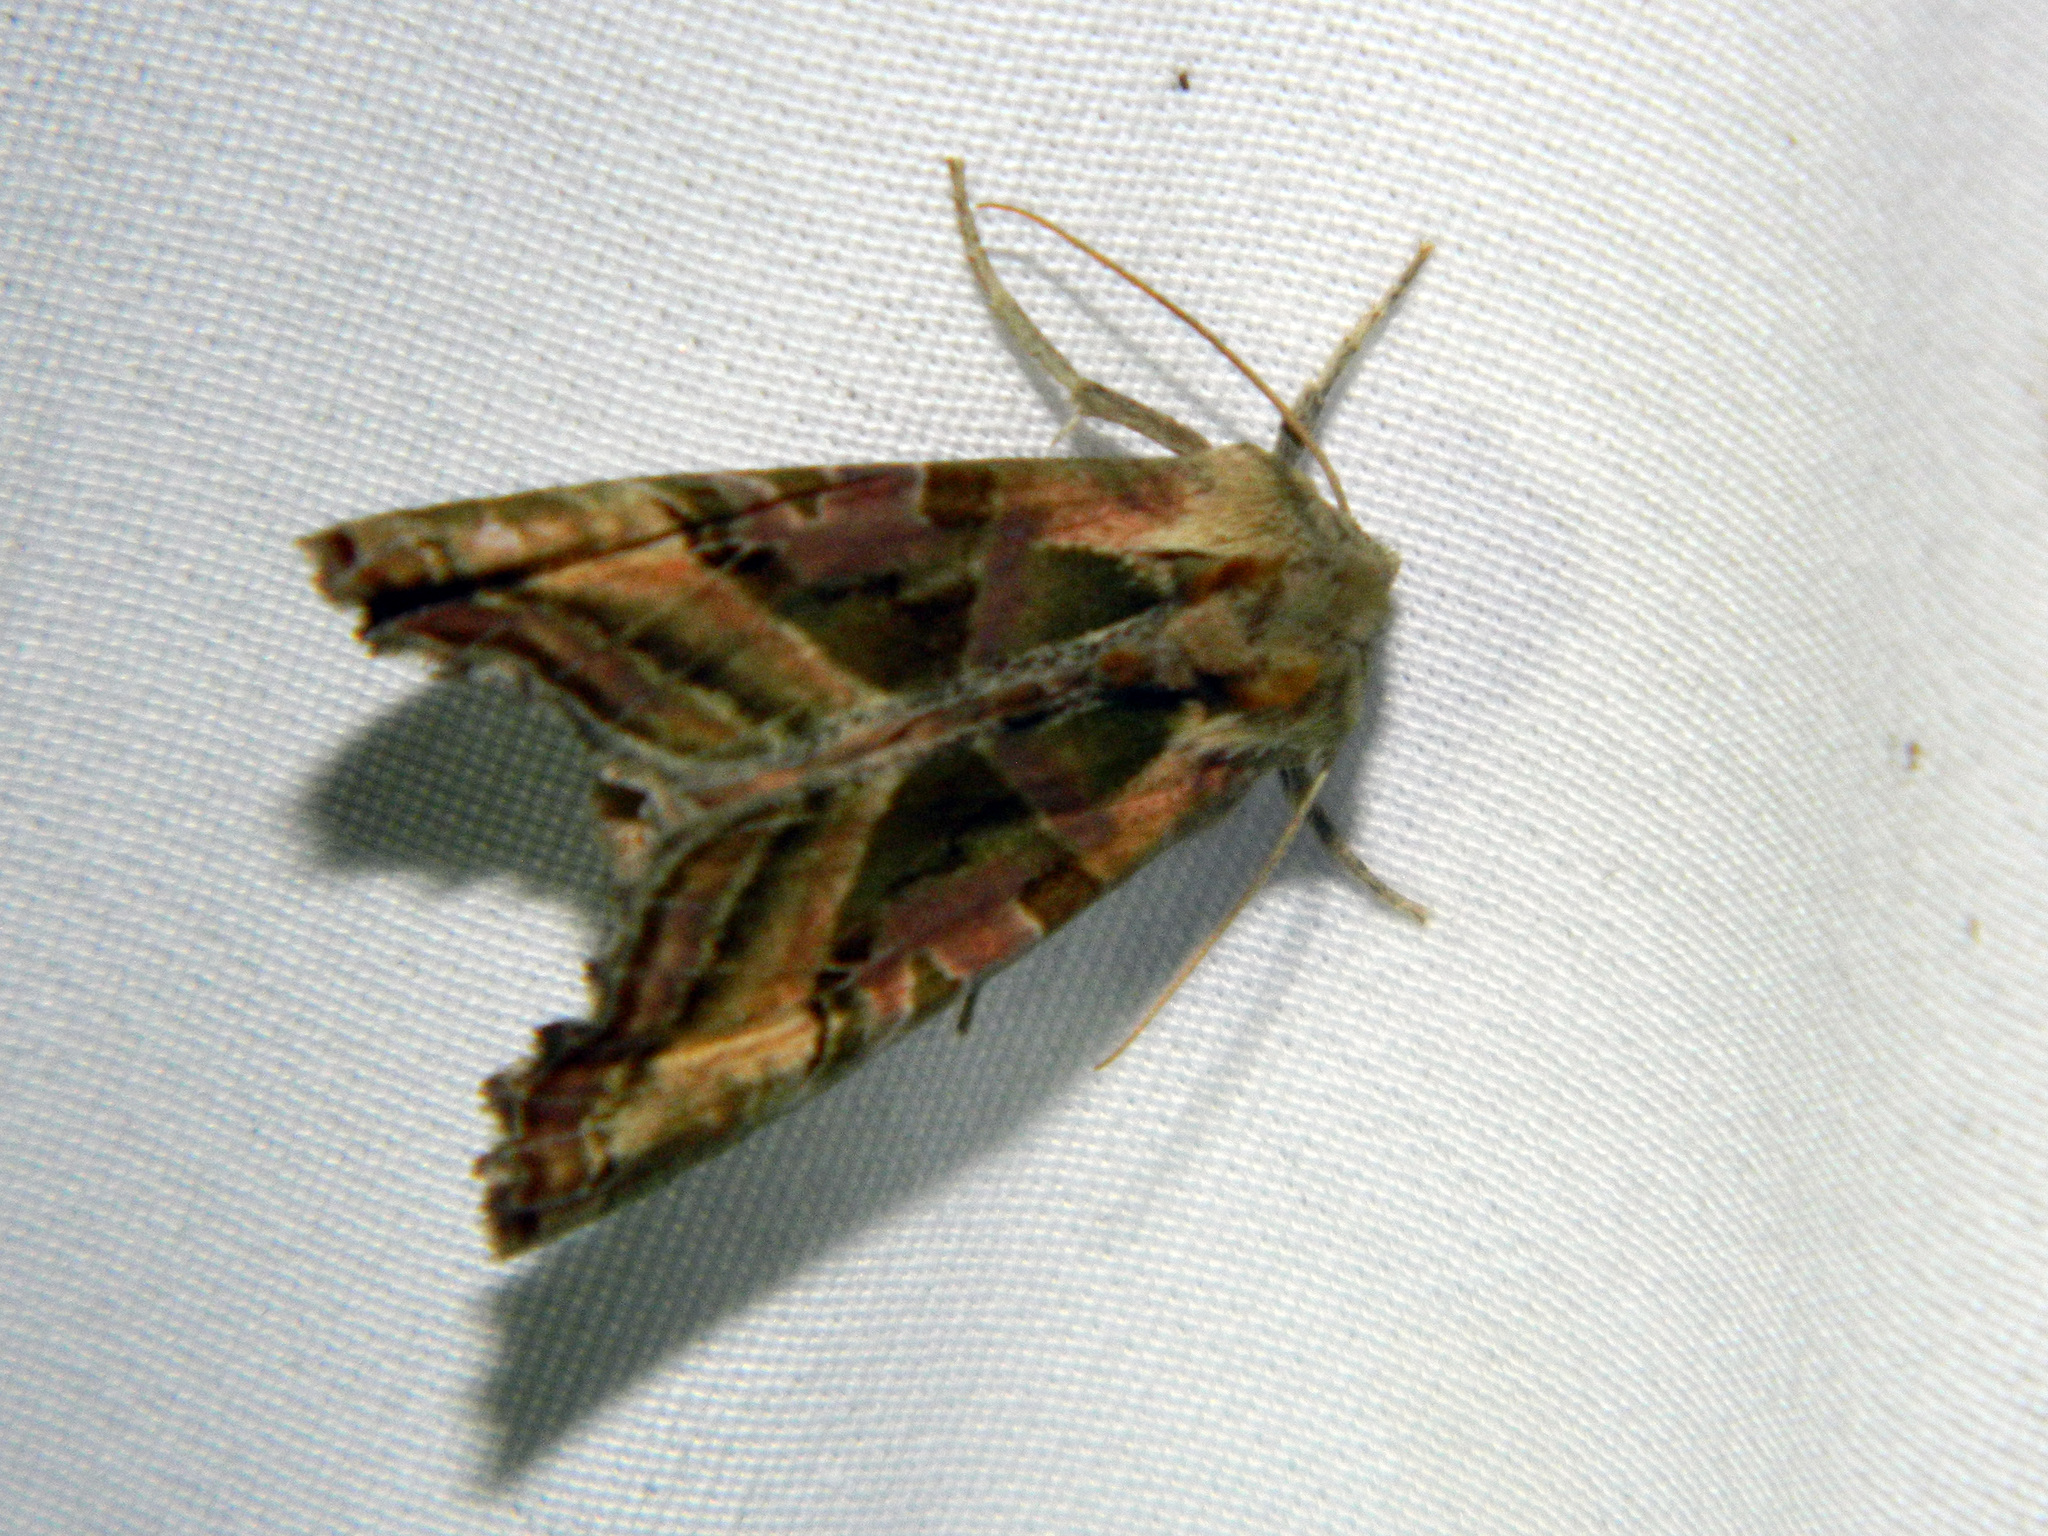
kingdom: Animalia
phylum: Arthropoda
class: Insecta
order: Lepidoptera
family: Noctuidae
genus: Phlogophora
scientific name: Phlogophora iris
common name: Olive angle shades
